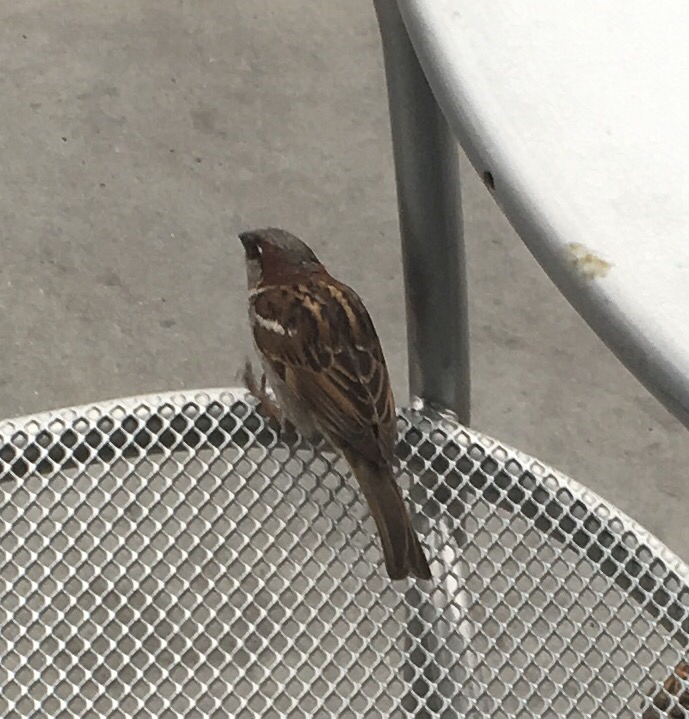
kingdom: Animalia
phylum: Chordata
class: Aves
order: Passeriformes
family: Passeridae
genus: Passer
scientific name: Passer domesticus
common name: House sparrow
